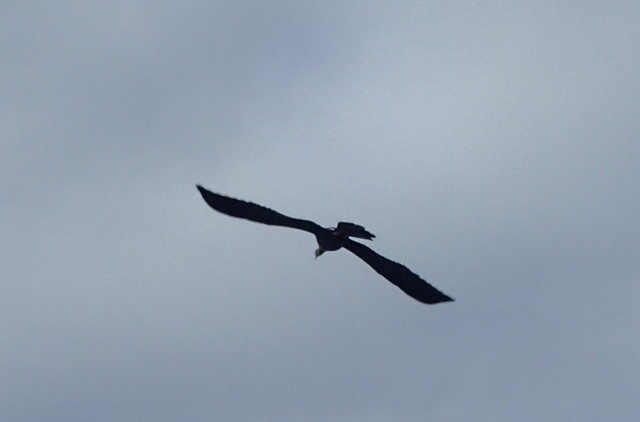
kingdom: Animalia
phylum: Chordata
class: Aves
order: Suliformes
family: Anhingidae
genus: Anhinga
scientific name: Anhinga anhinga
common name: Anhinga
